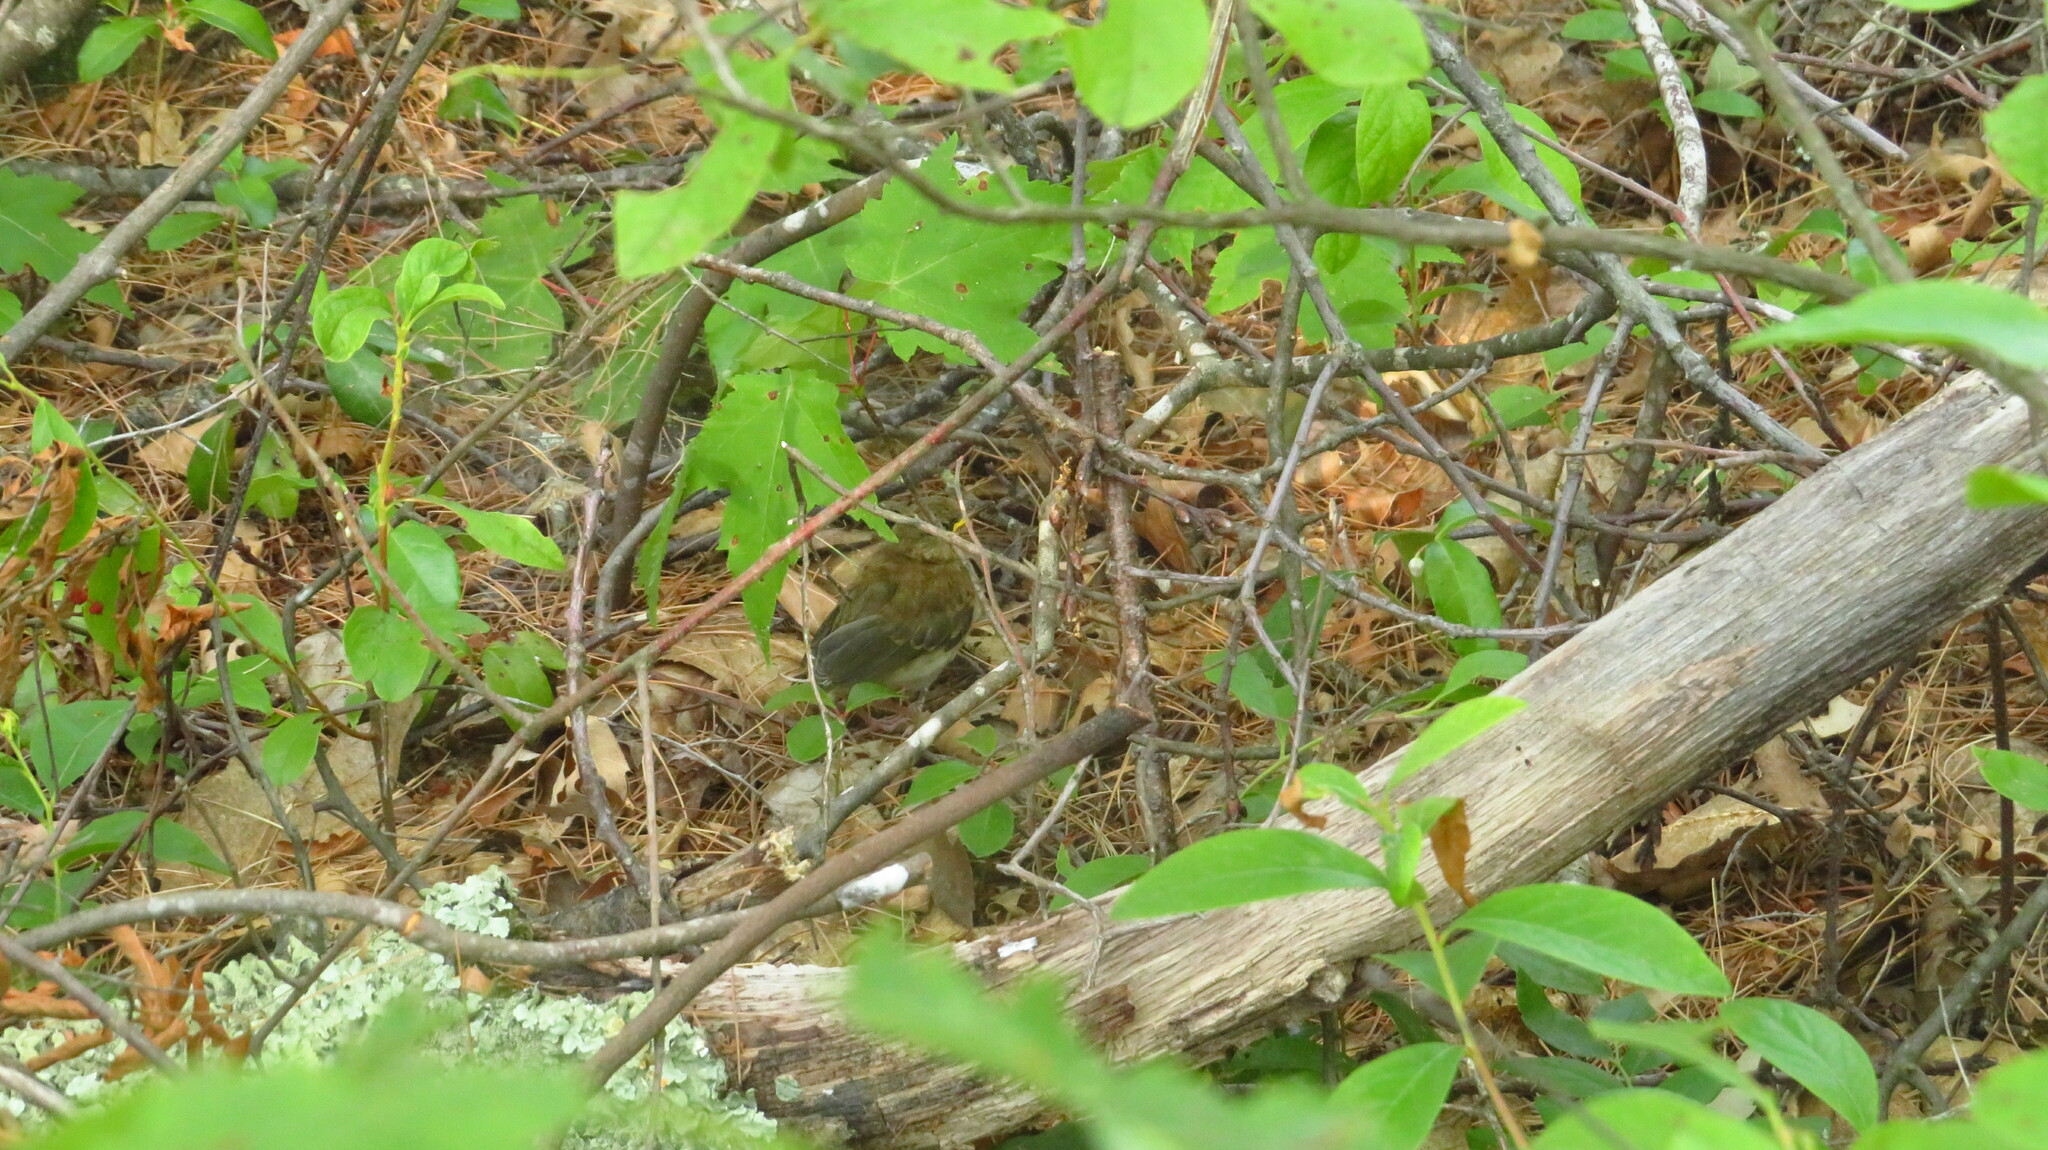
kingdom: Animalia
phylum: Chordata
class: Aves
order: Passeriformes
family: Turdidae
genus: Catharus
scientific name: Catharus
